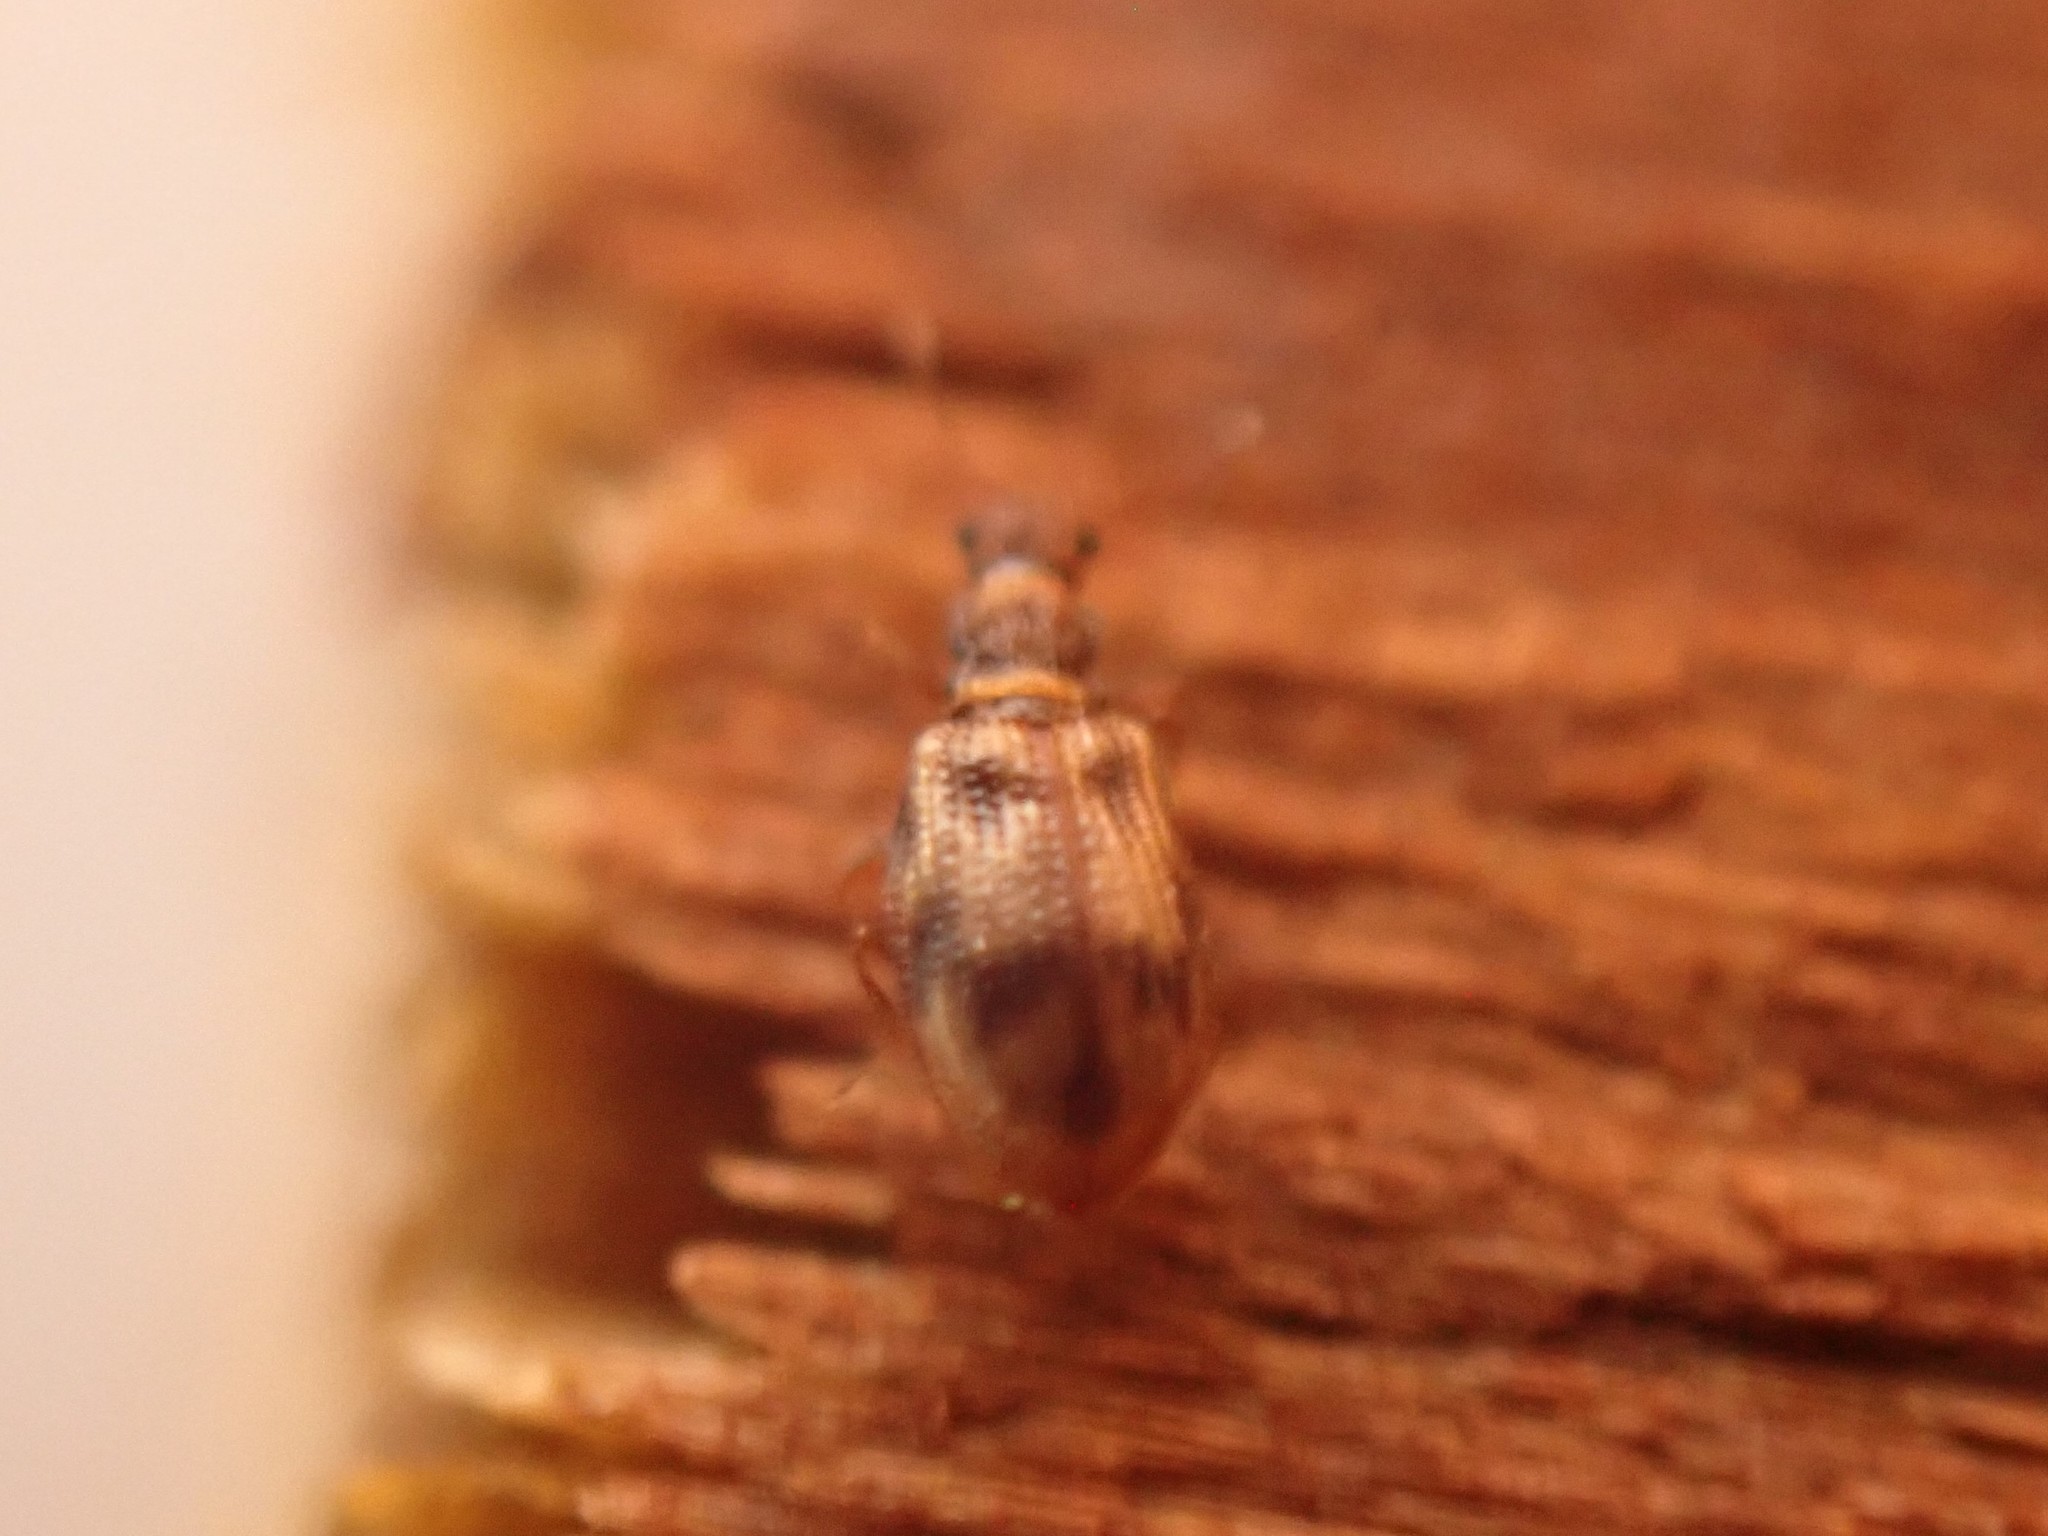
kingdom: Animalia
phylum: Arthropoda
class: Insecta
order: Coleoptera
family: Latridiidae
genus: Cartodere
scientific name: Cartodere bifasciata
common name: Plaster beetle
